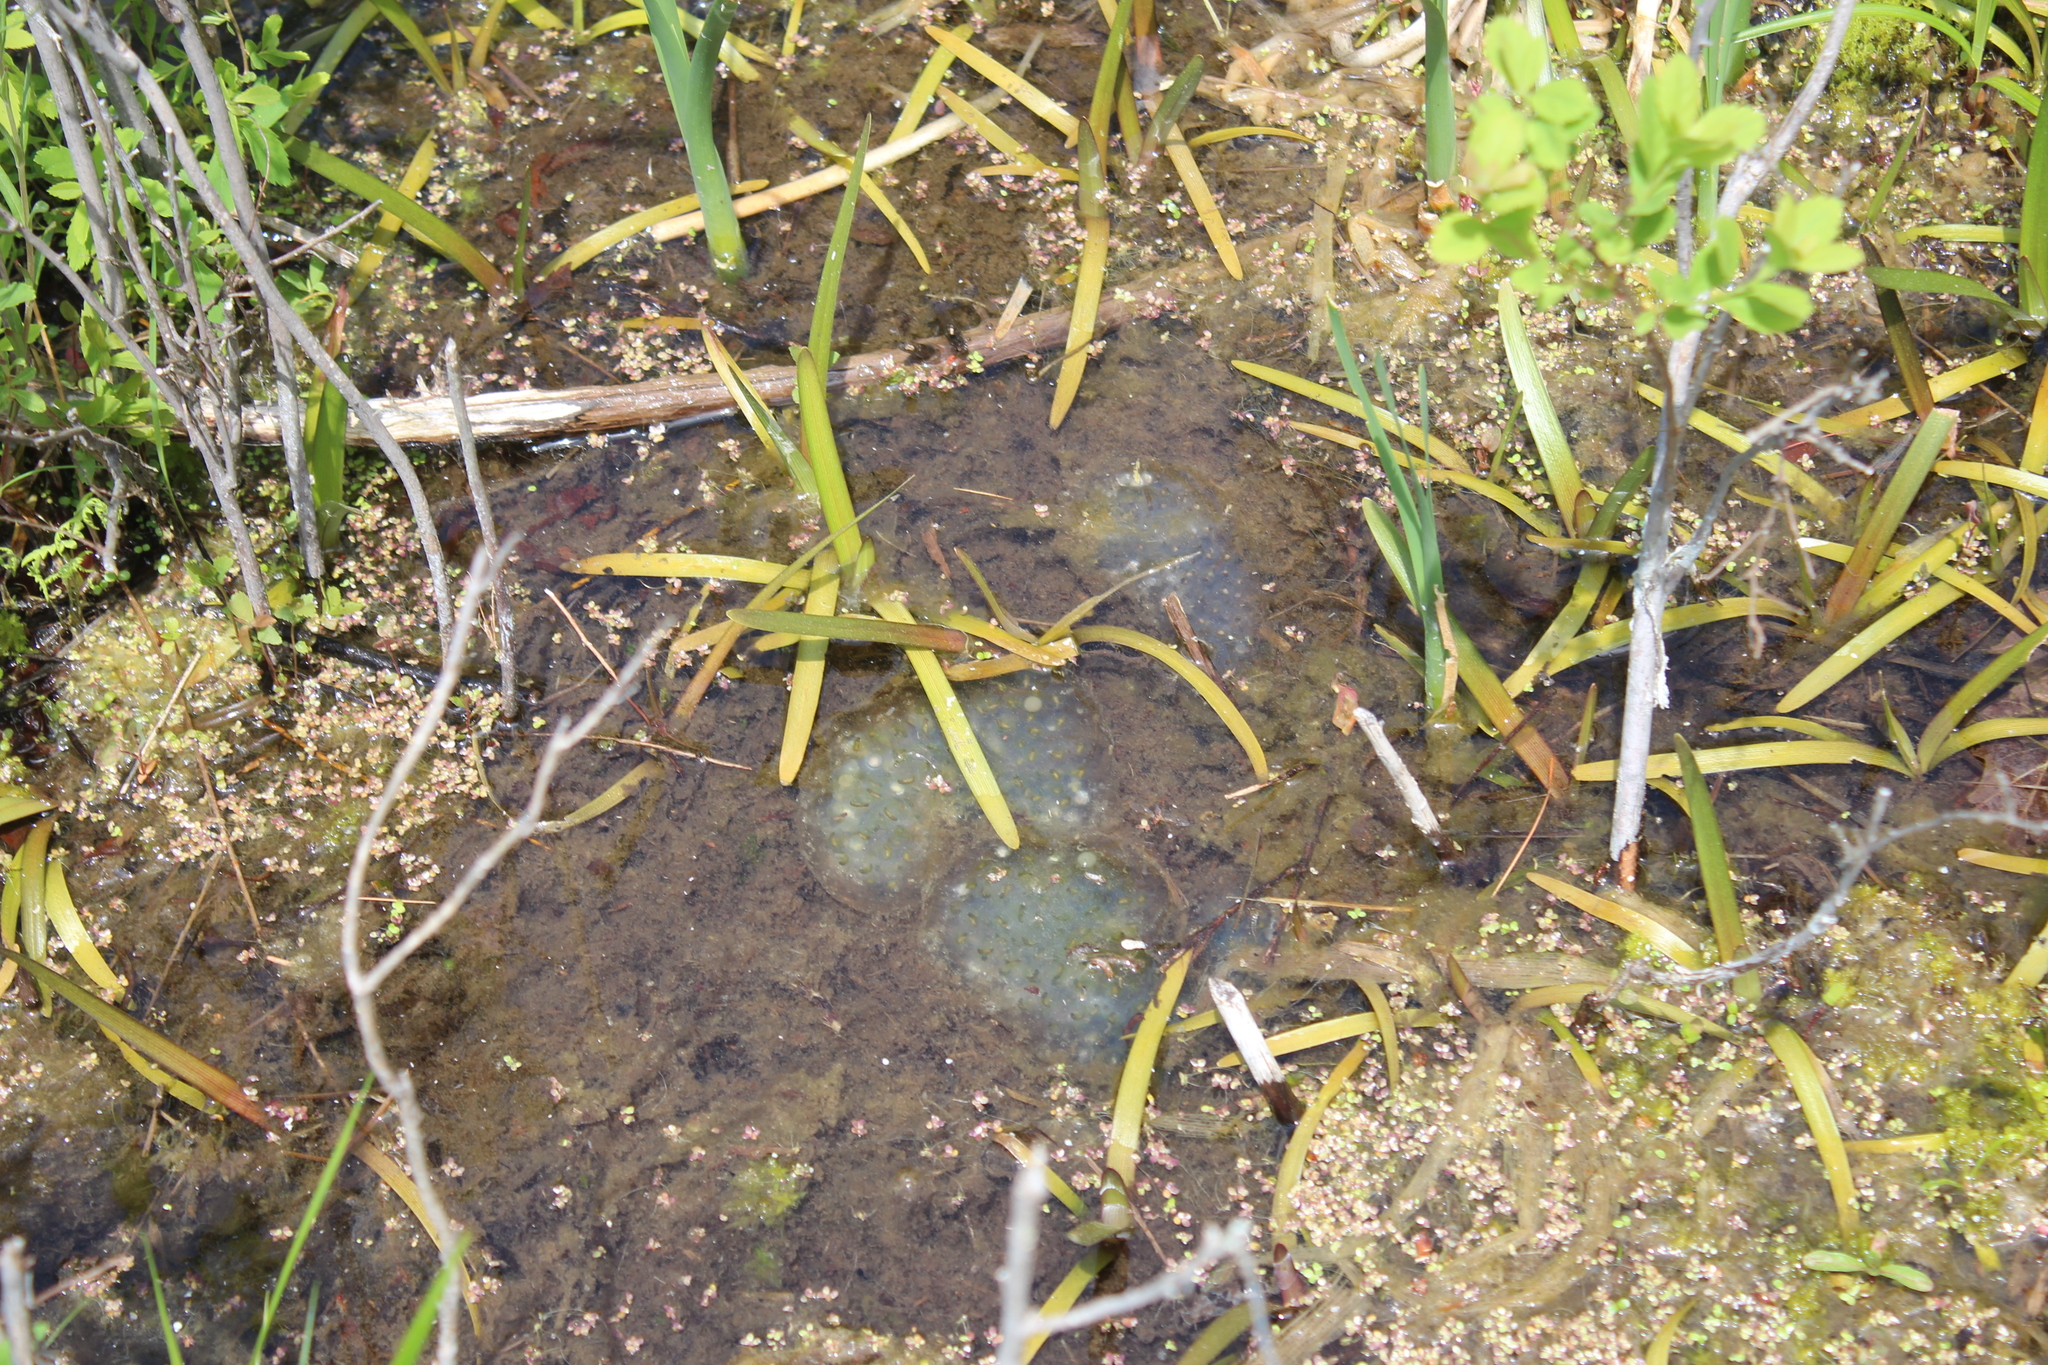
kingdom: Animalia
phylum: Chordata
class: Amphibia
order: Caudata
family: Ambystomatidae
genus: Ambystoma
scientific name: Ambystoma maculatum
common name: Spotted salamander
